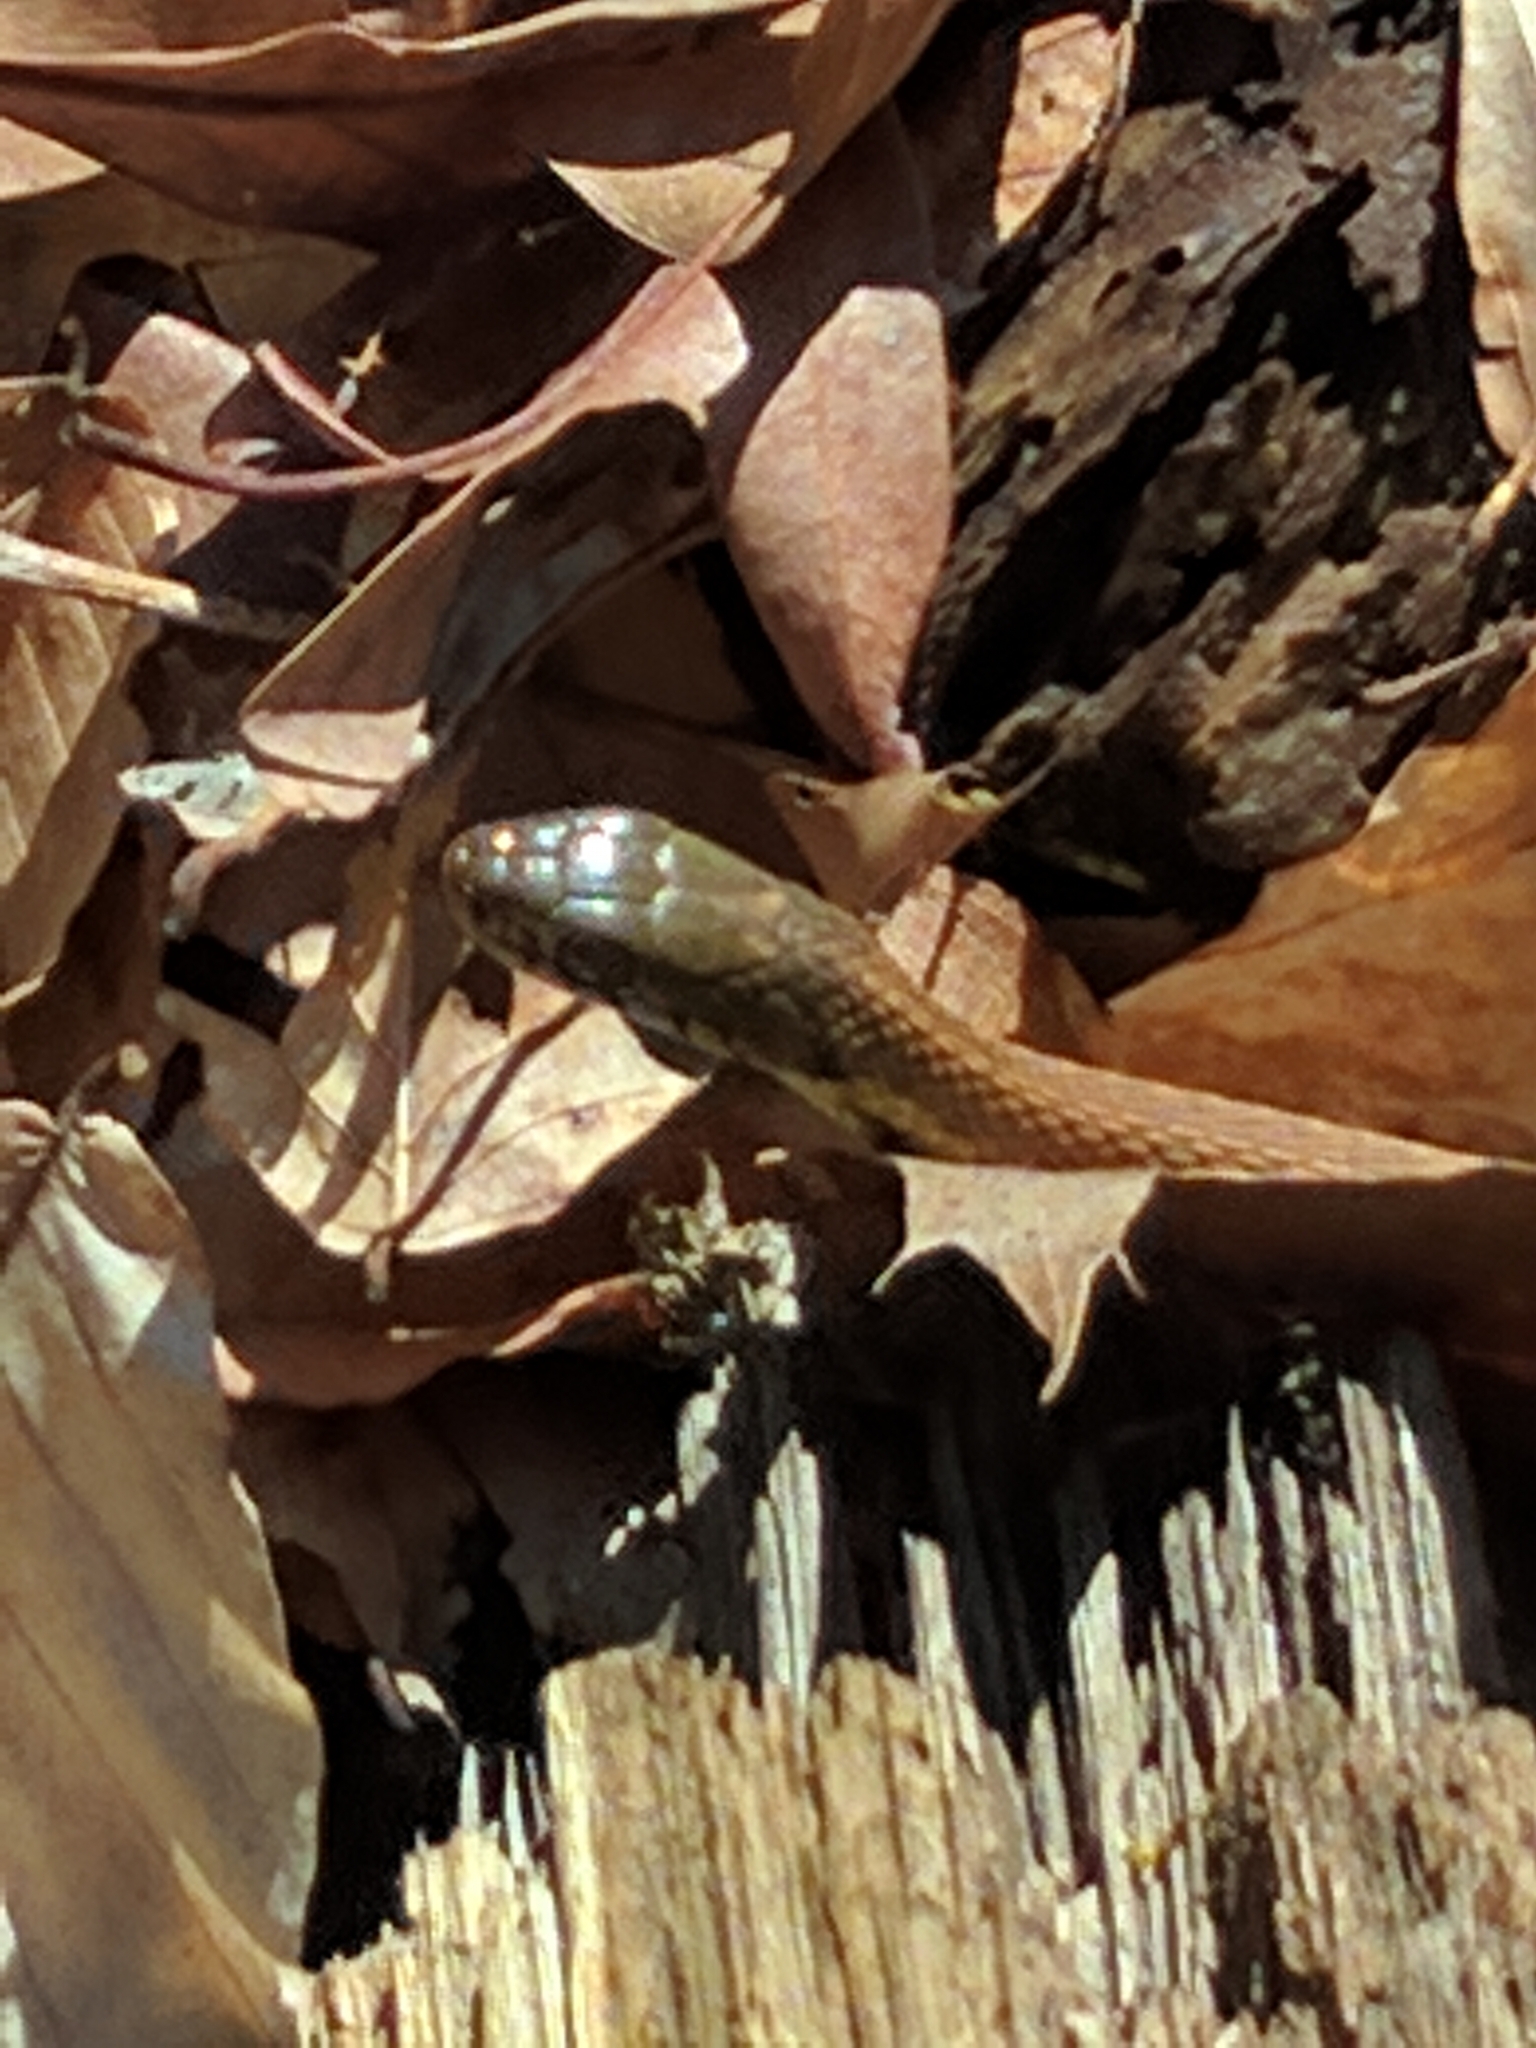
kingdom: Animalia
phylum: Chordata
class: Squamata
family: Colubridae
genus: Thamnophis
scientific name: Thamnophis sirtalis
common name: Common garter snake
